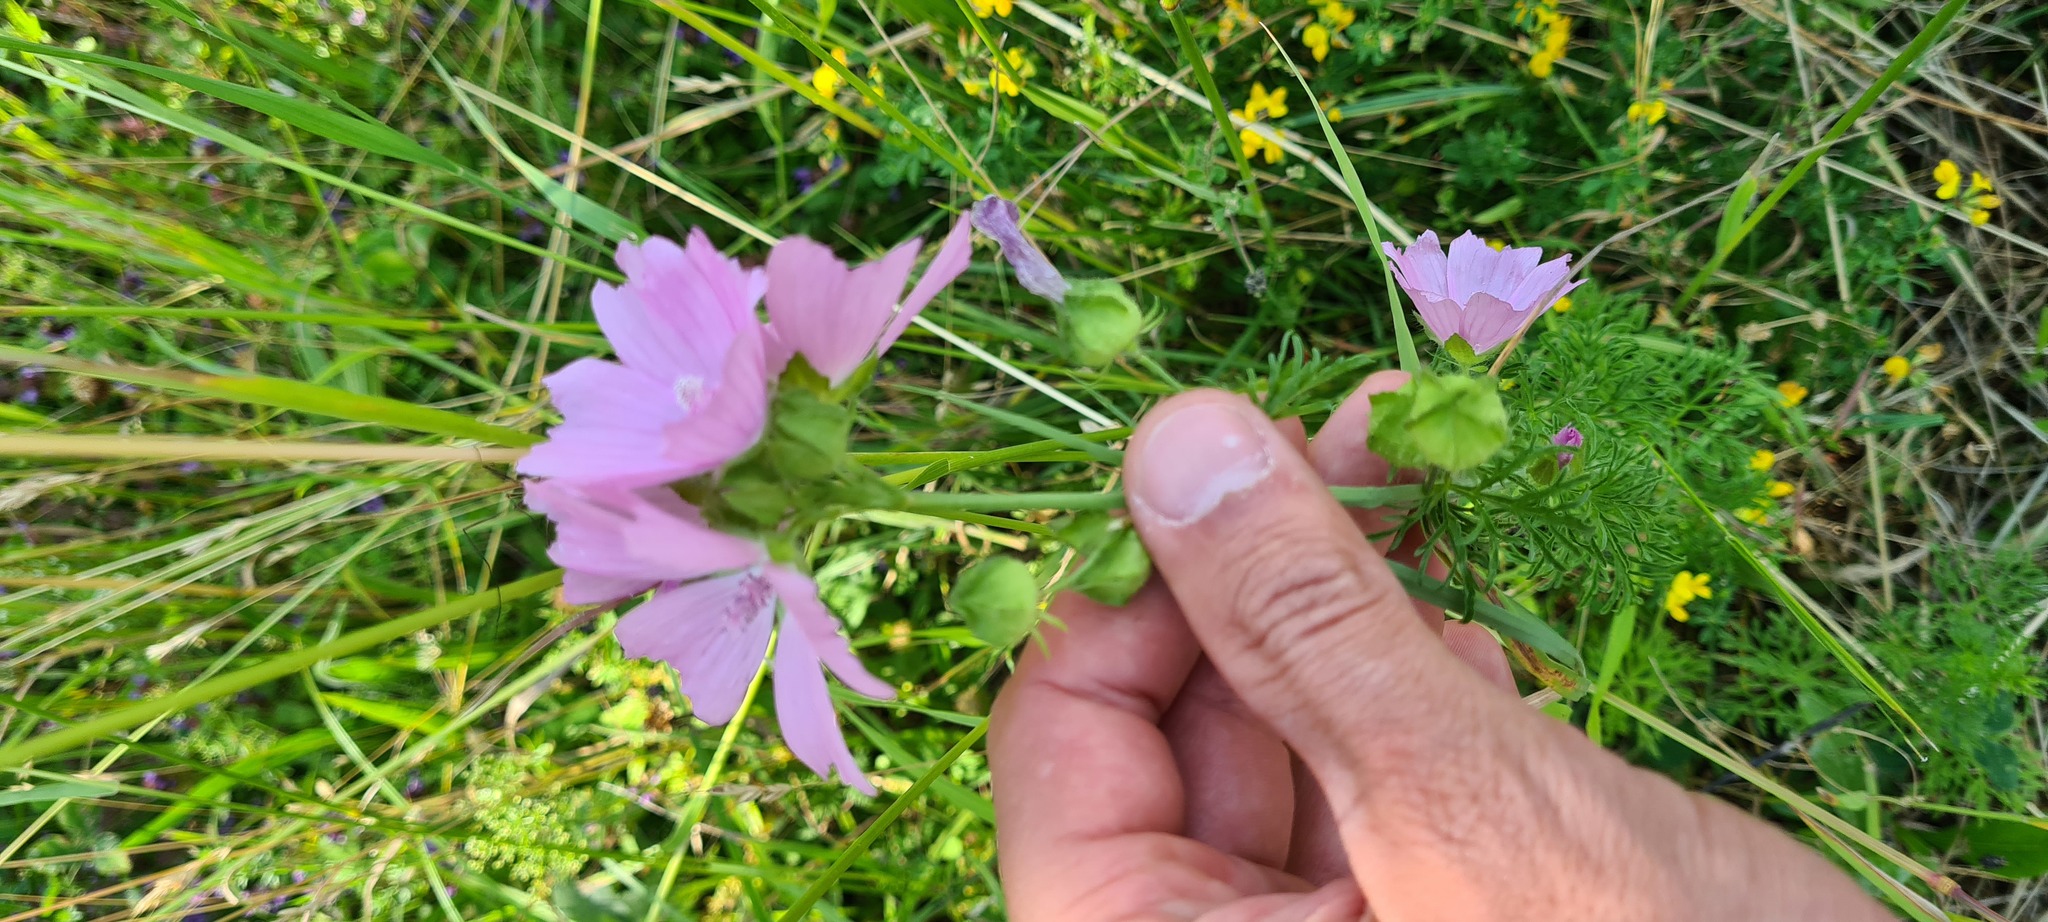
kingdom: Plantae
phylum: Tracheophyta
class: Magnoliopsida
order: Malvales
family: Malvaceae
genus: Malva
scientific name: Malva moschata
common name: Musk mallow
